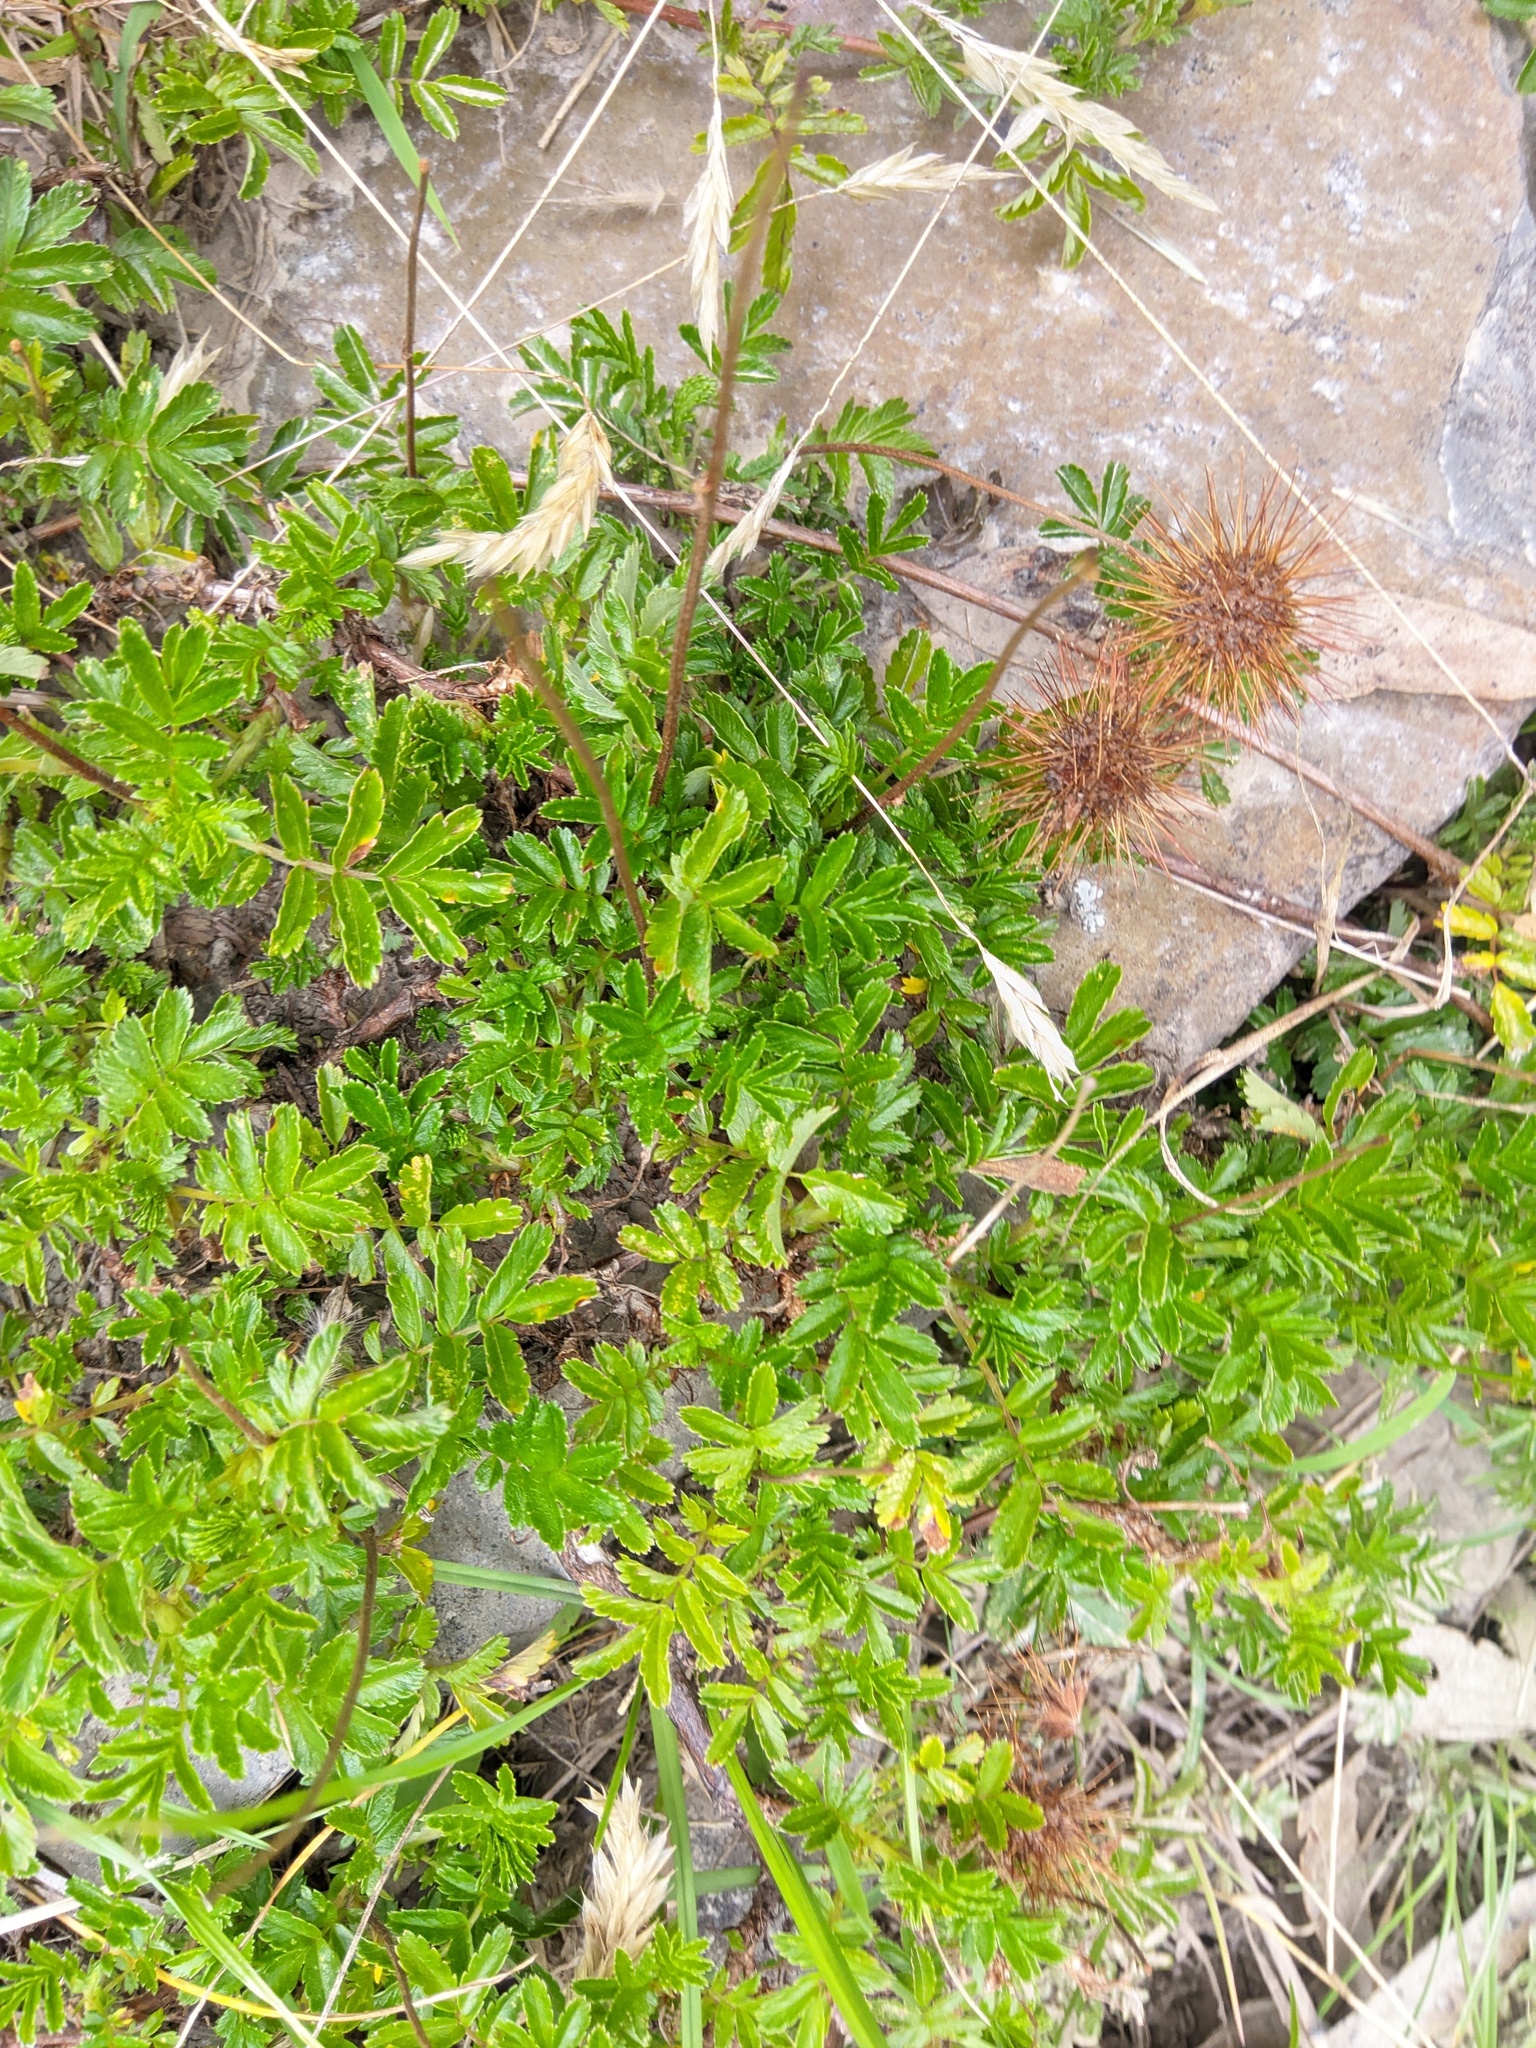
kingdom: Plantae
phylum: Tracheophyta
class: Magnoliopsida
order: Rosales
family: Rosaceae
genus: Acaena
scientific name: Acaena novae-zelandiae
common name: Pirri-pirri-bur
